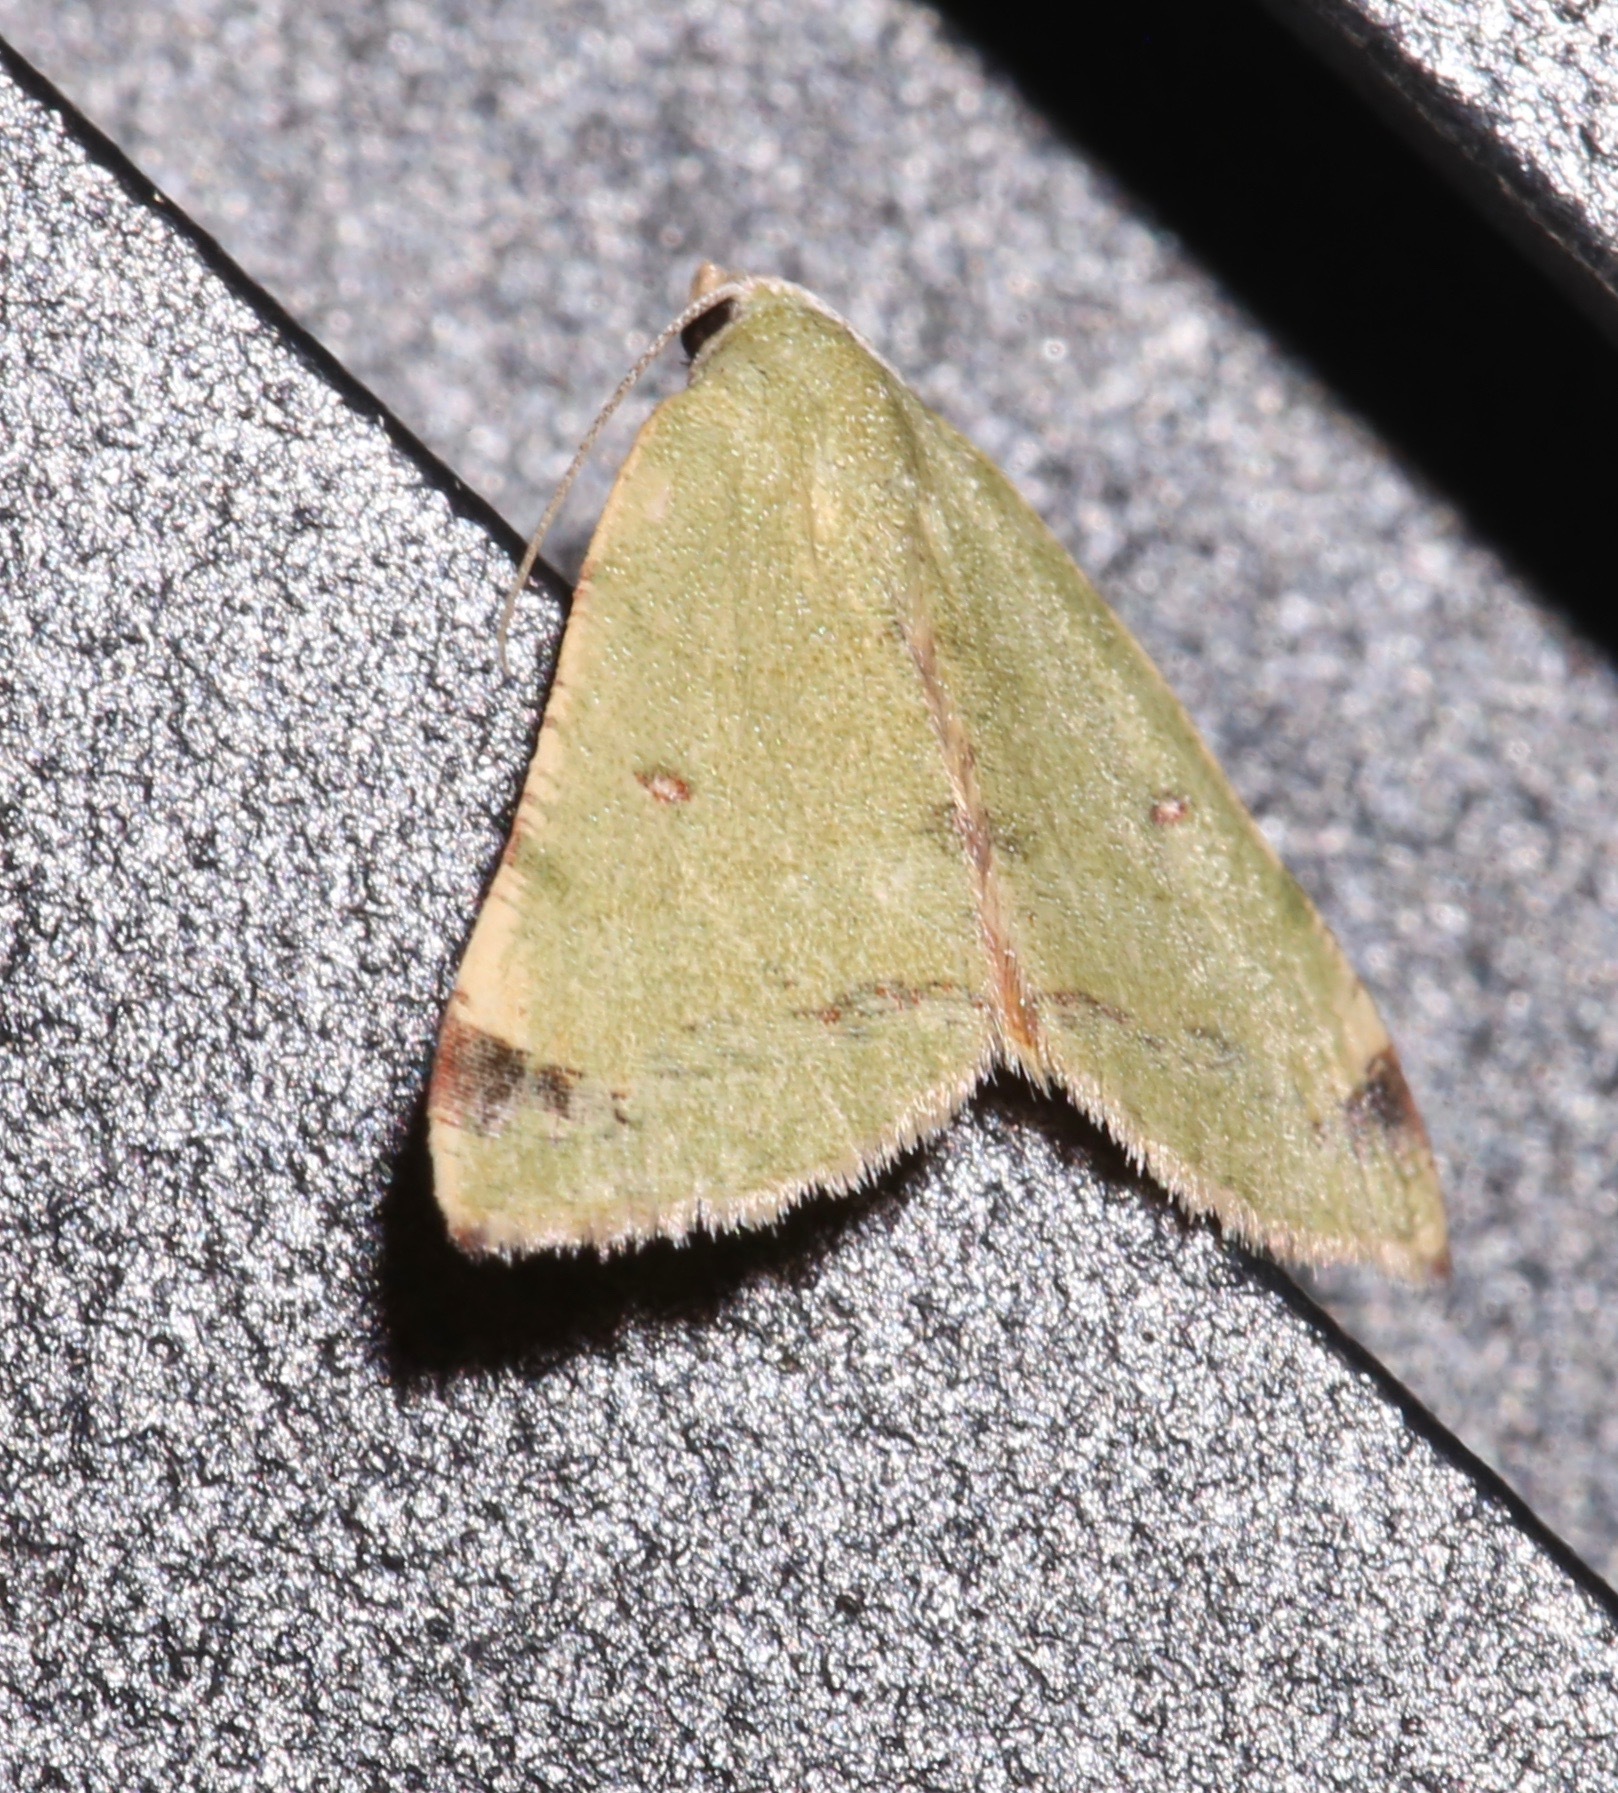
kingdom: Animalia
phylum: Arthropoda
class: Insecta
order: Lepidoptera
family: Geometridae
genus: Chloraspilates
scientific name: Chloraspilates bicoloraria
